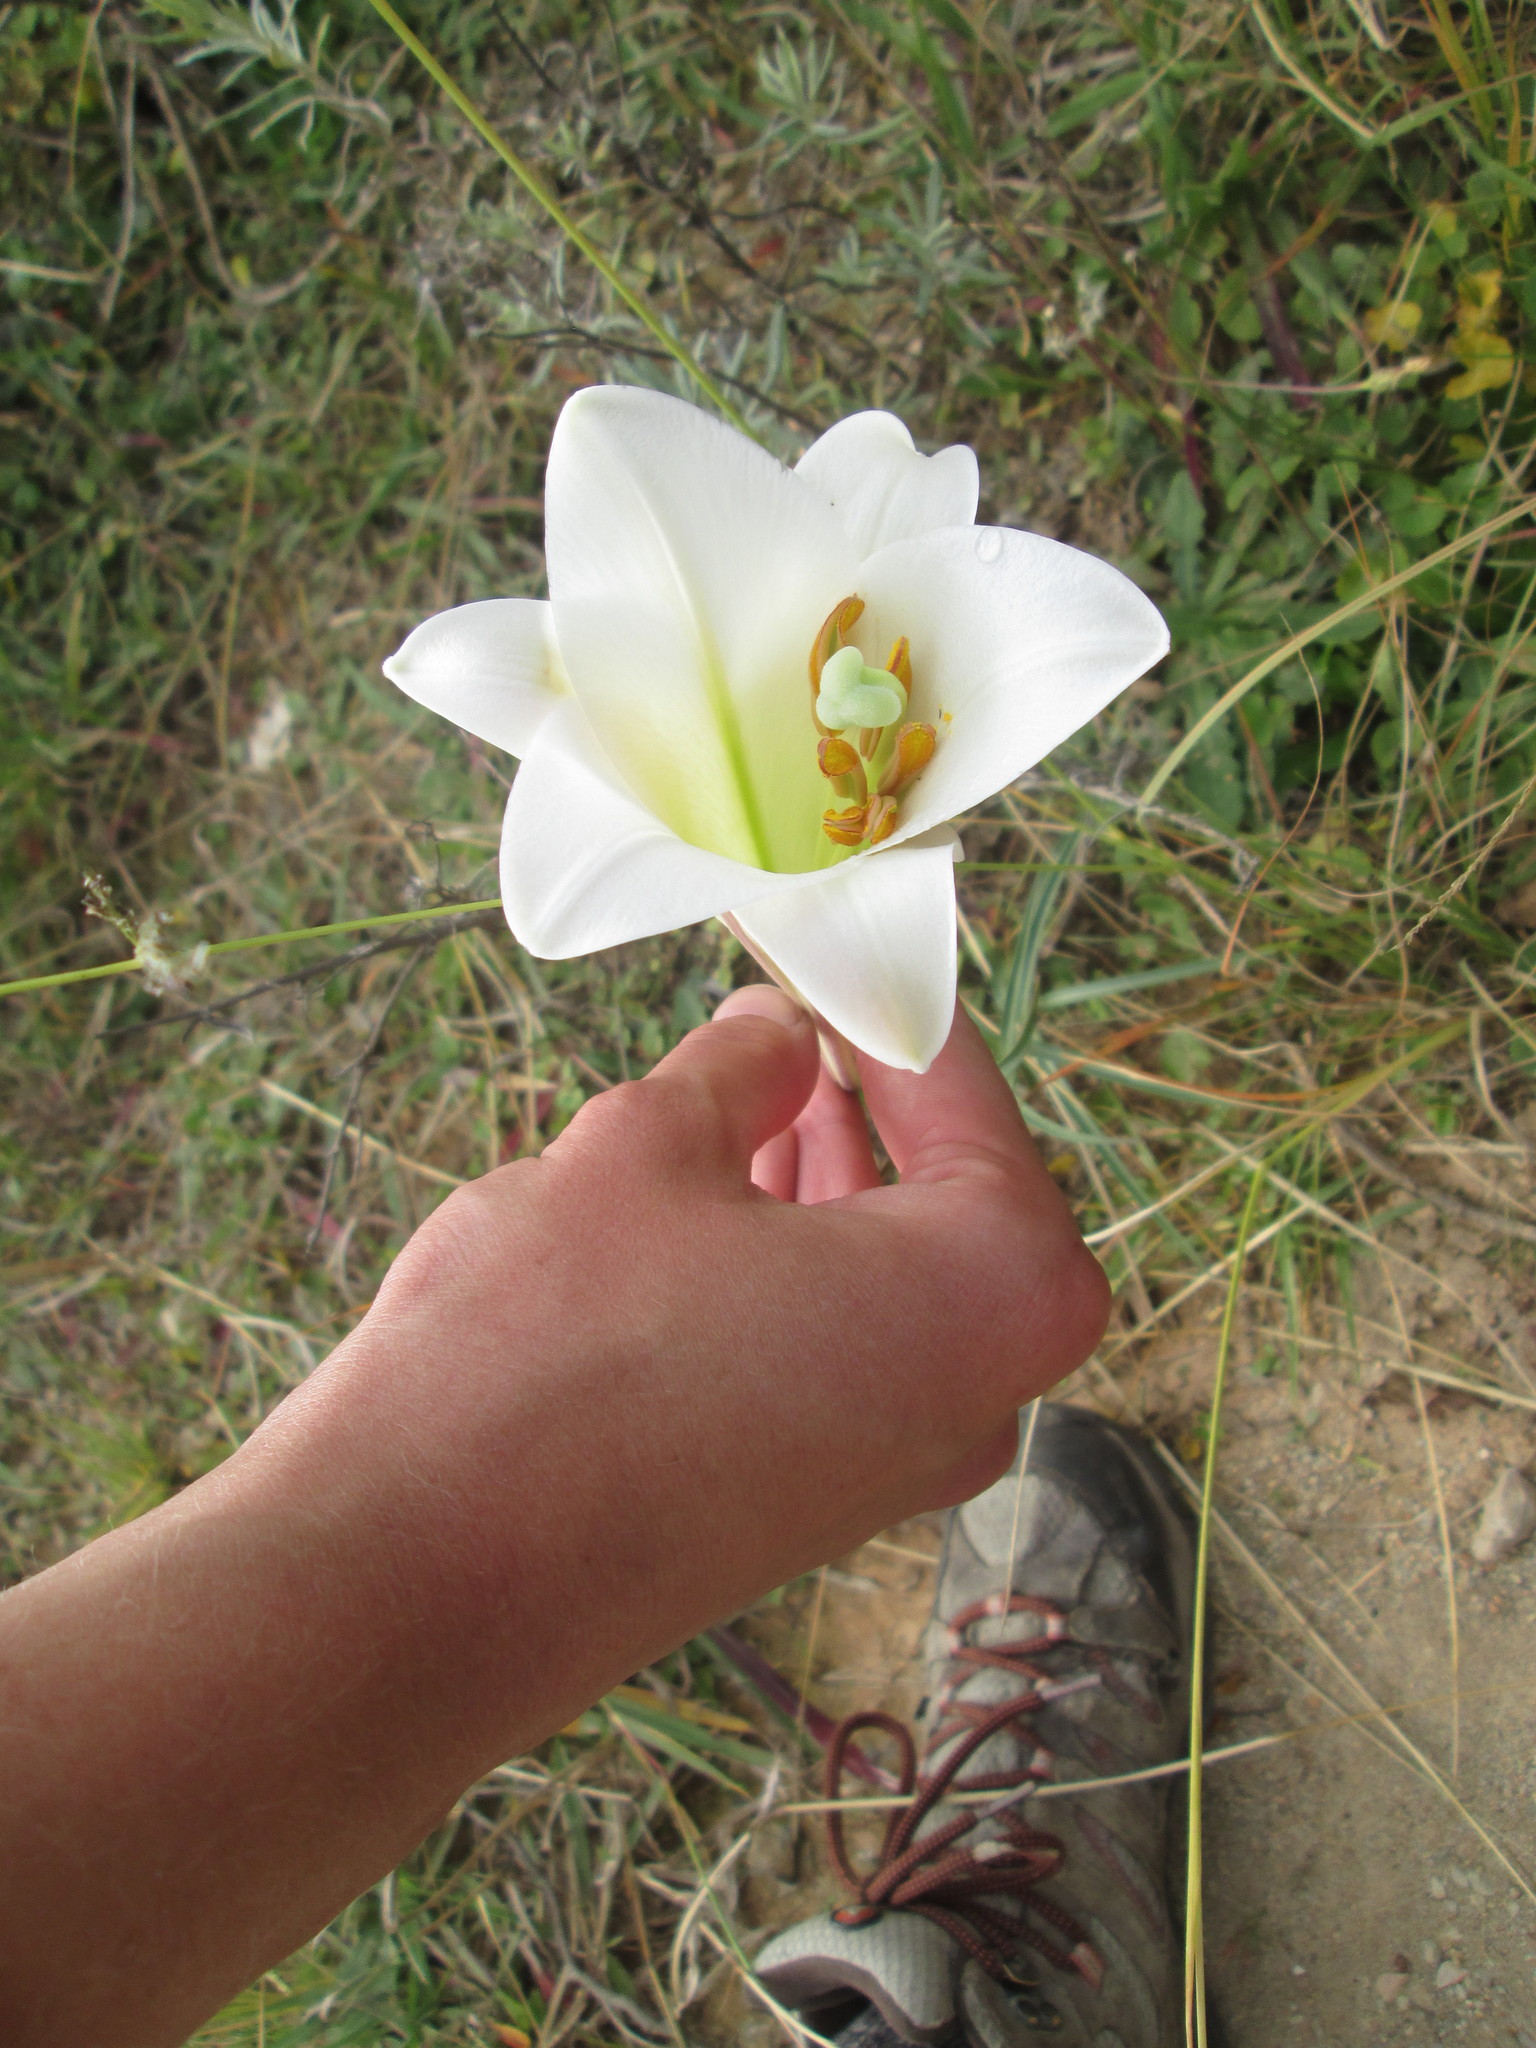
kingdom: Plantae
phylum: Tracheophyta
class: Liliopsida
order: Liliales
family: Liliaceae
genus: Lilium
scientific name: Lilium formosanum
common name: Formosa lily
